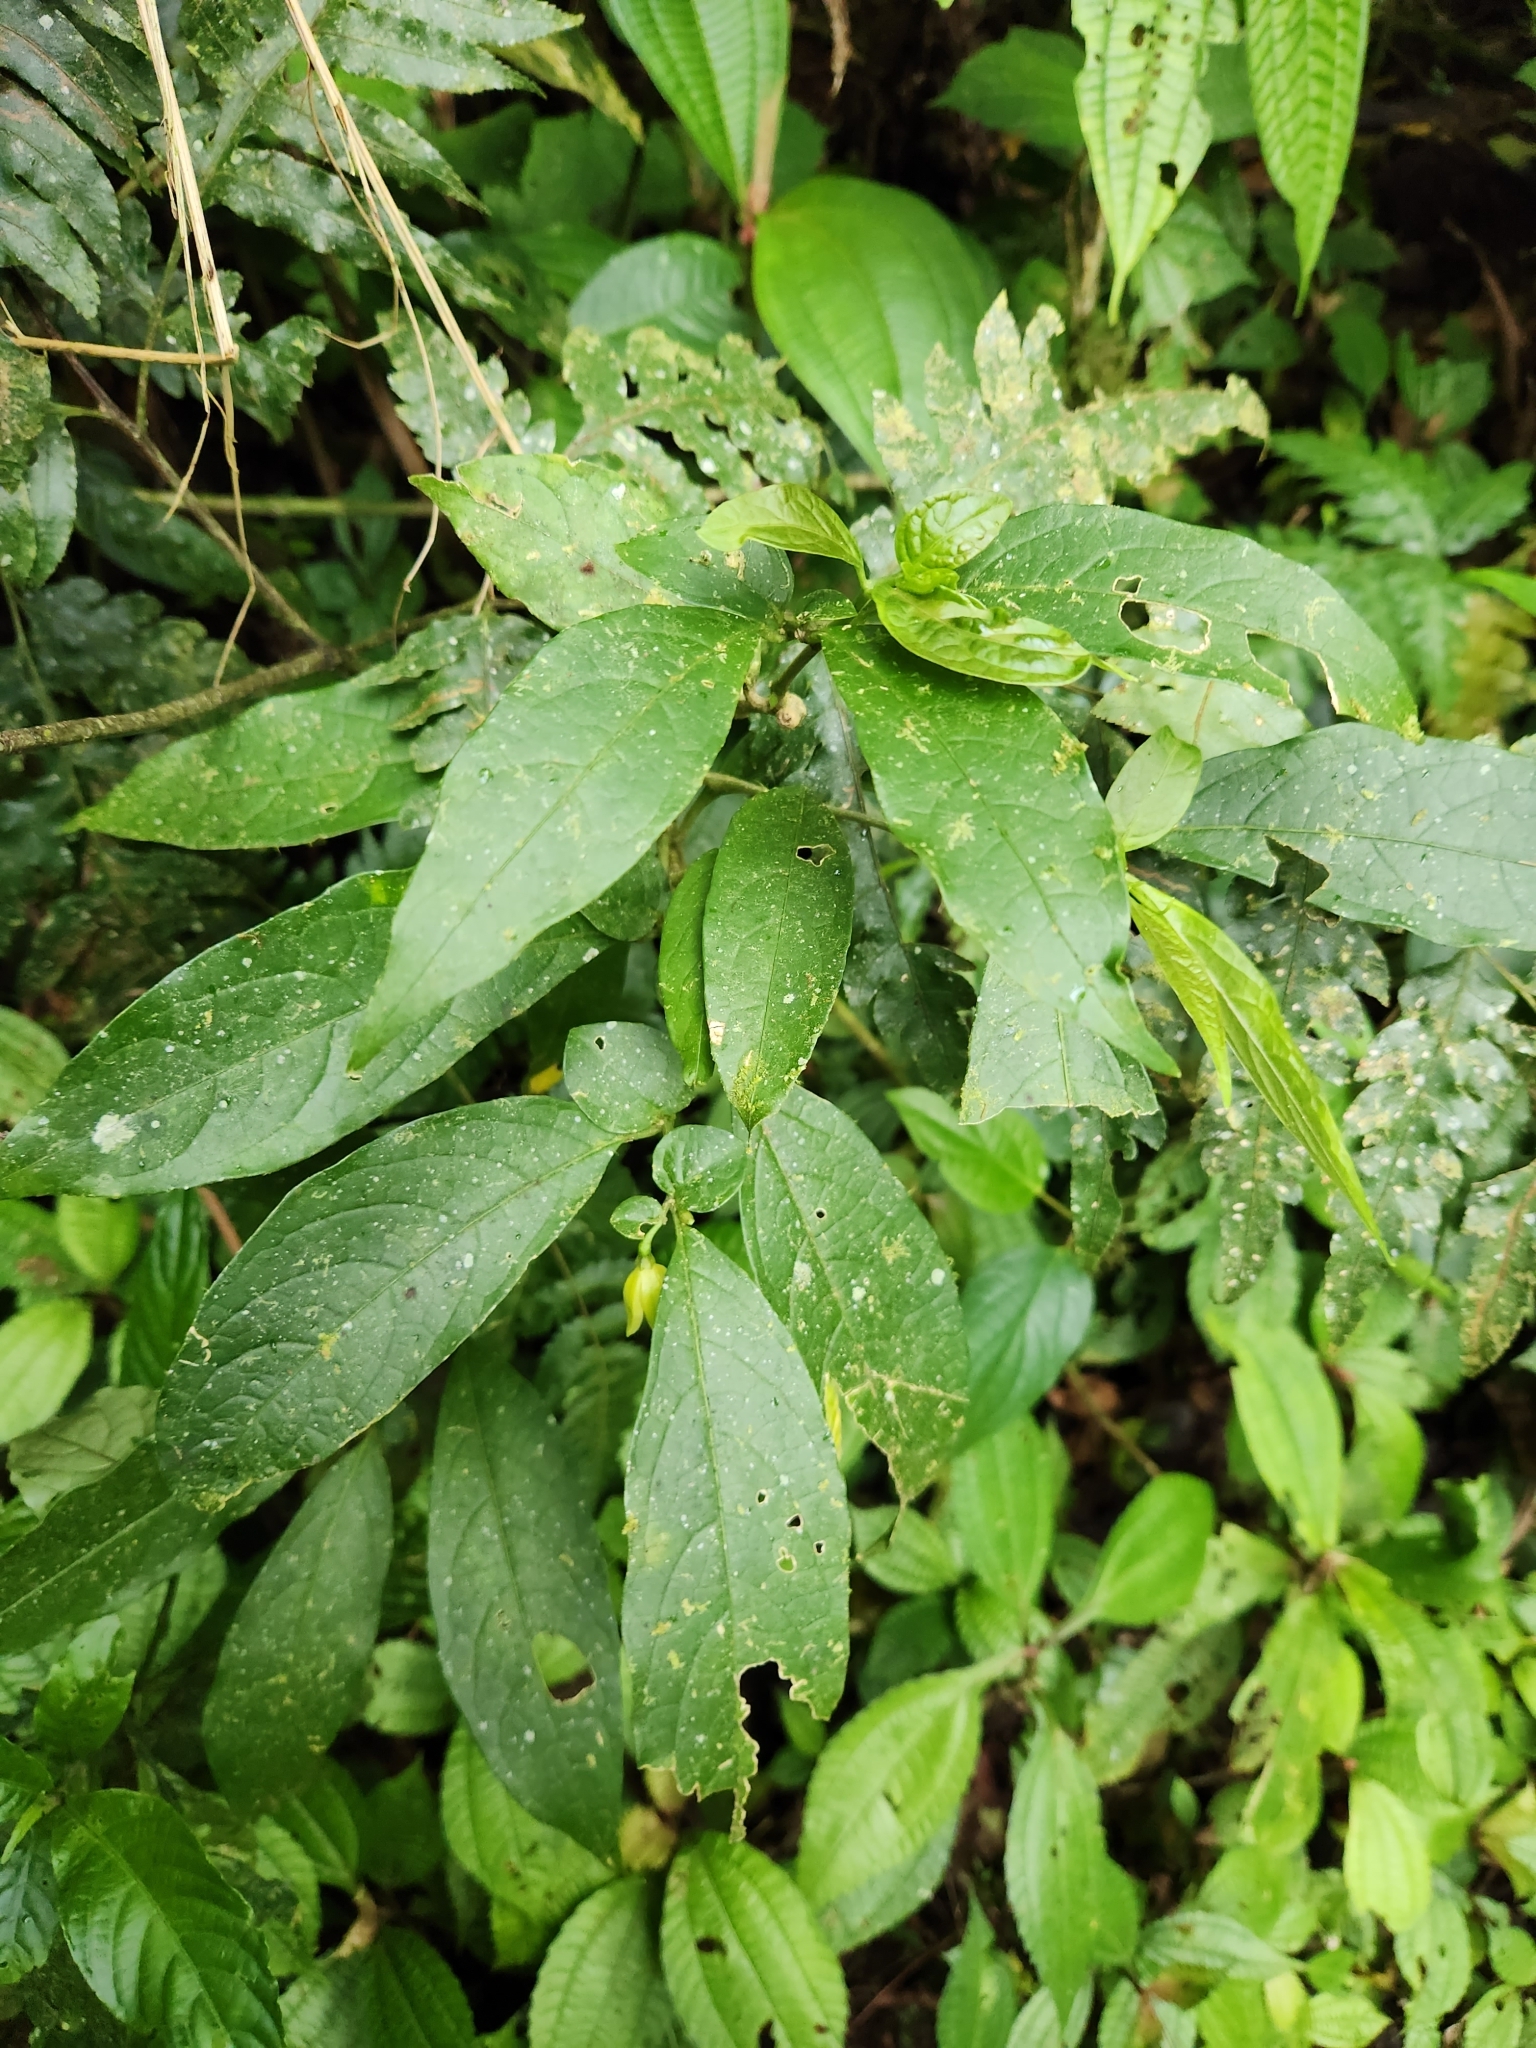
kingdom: Plantae
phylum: Tracheophyta
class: Magnoliopsida
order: Solanales
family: Solanaceae
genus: Cuatresia
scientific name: Cuatresia riparia
